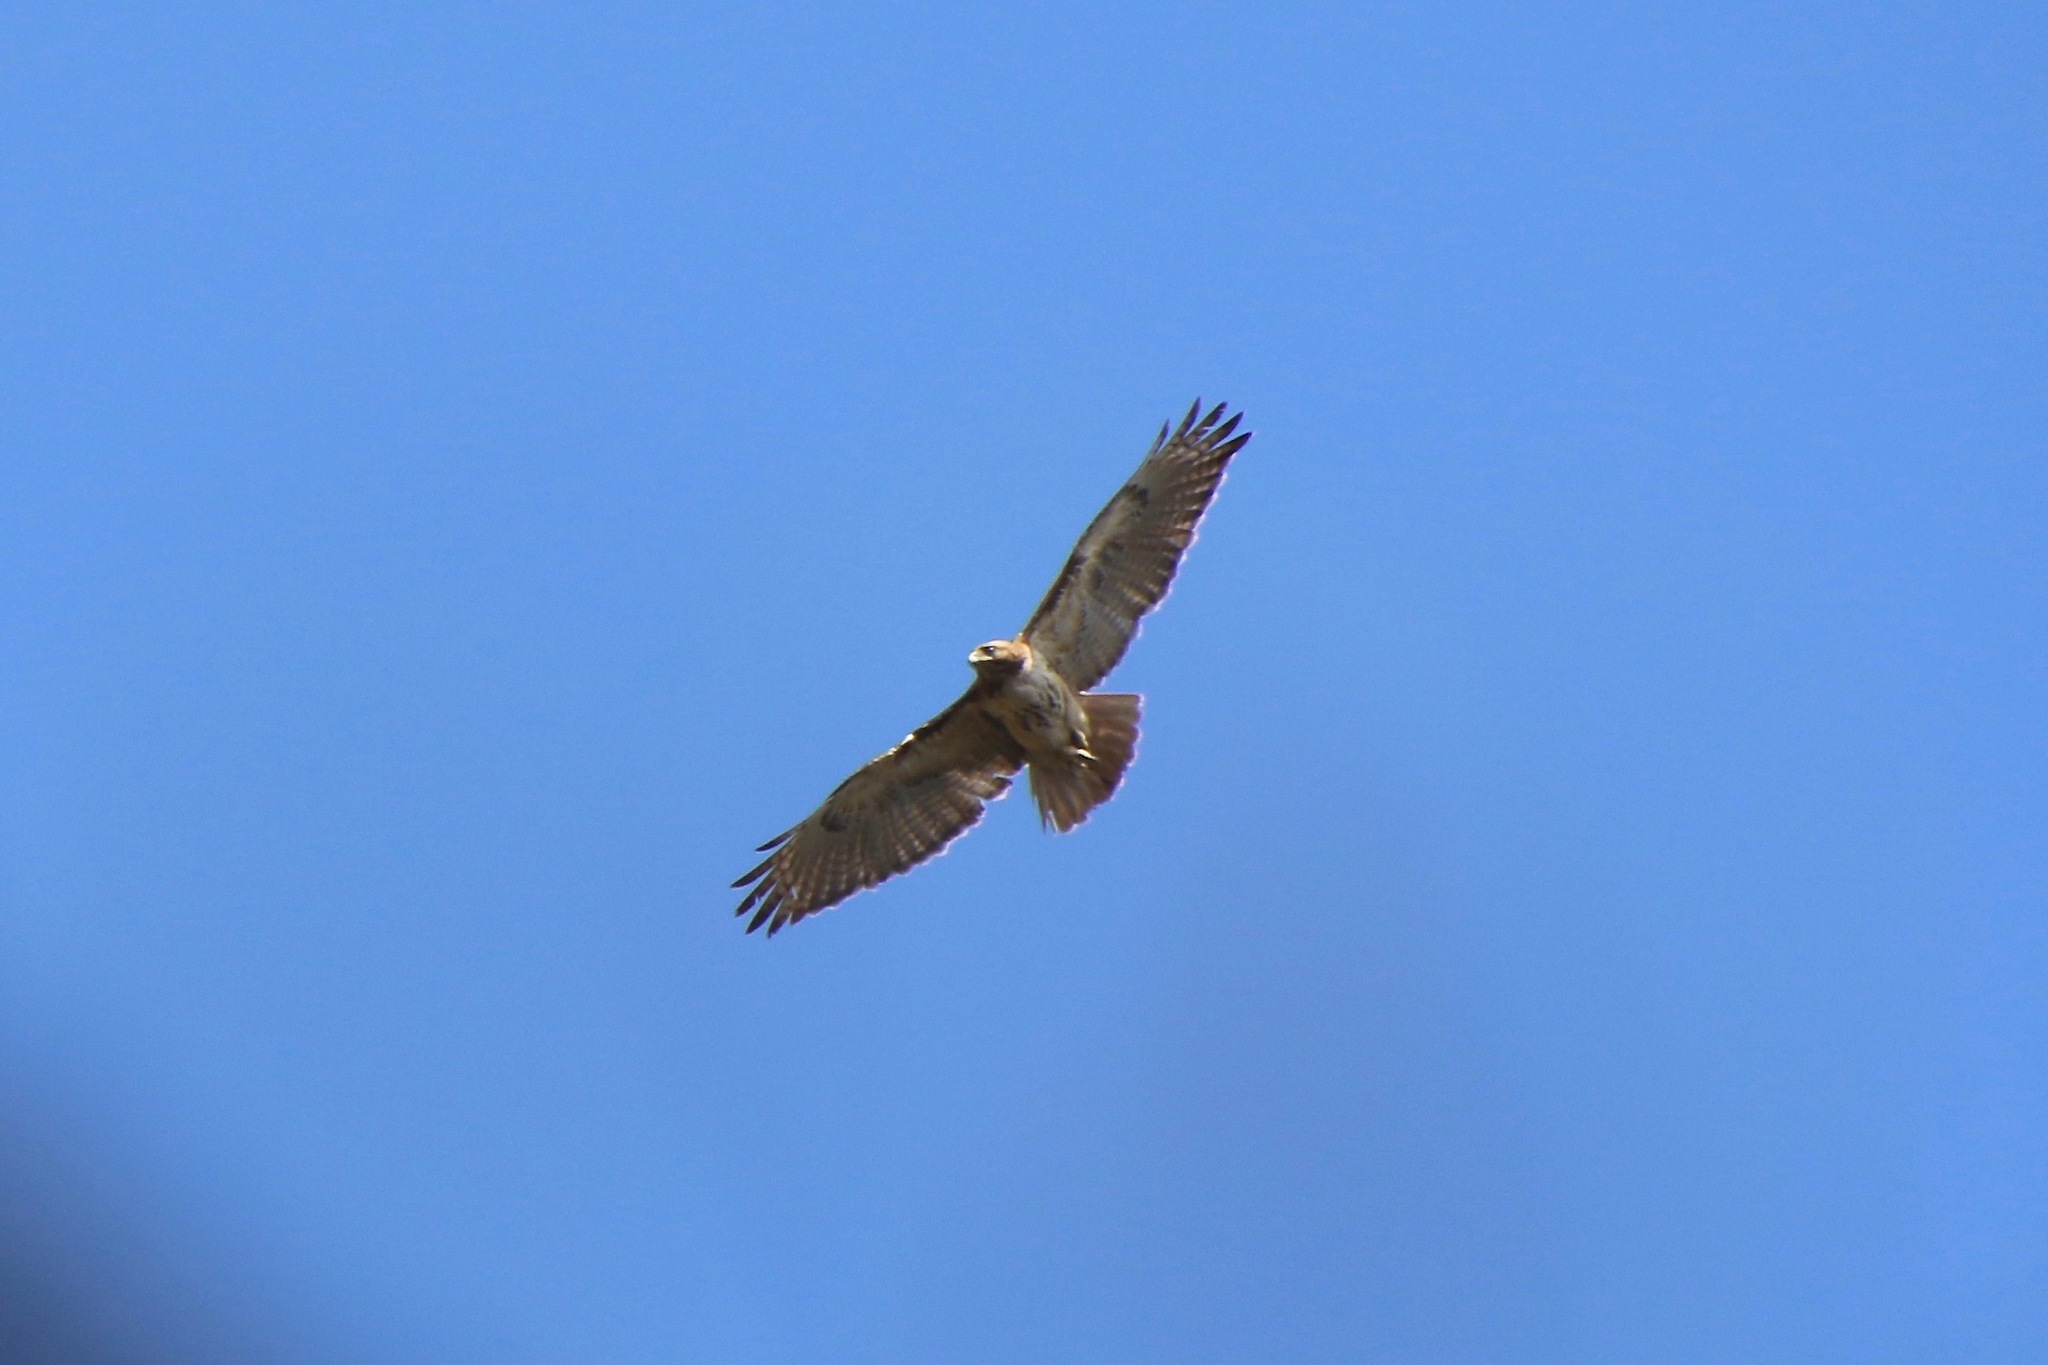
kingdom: Animalia
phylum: Chordata
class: Aves
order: Accipitriformes
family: Accipitridae
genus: Buteo
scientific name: Buteo jamaicensis
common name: Red-tailed hawk
